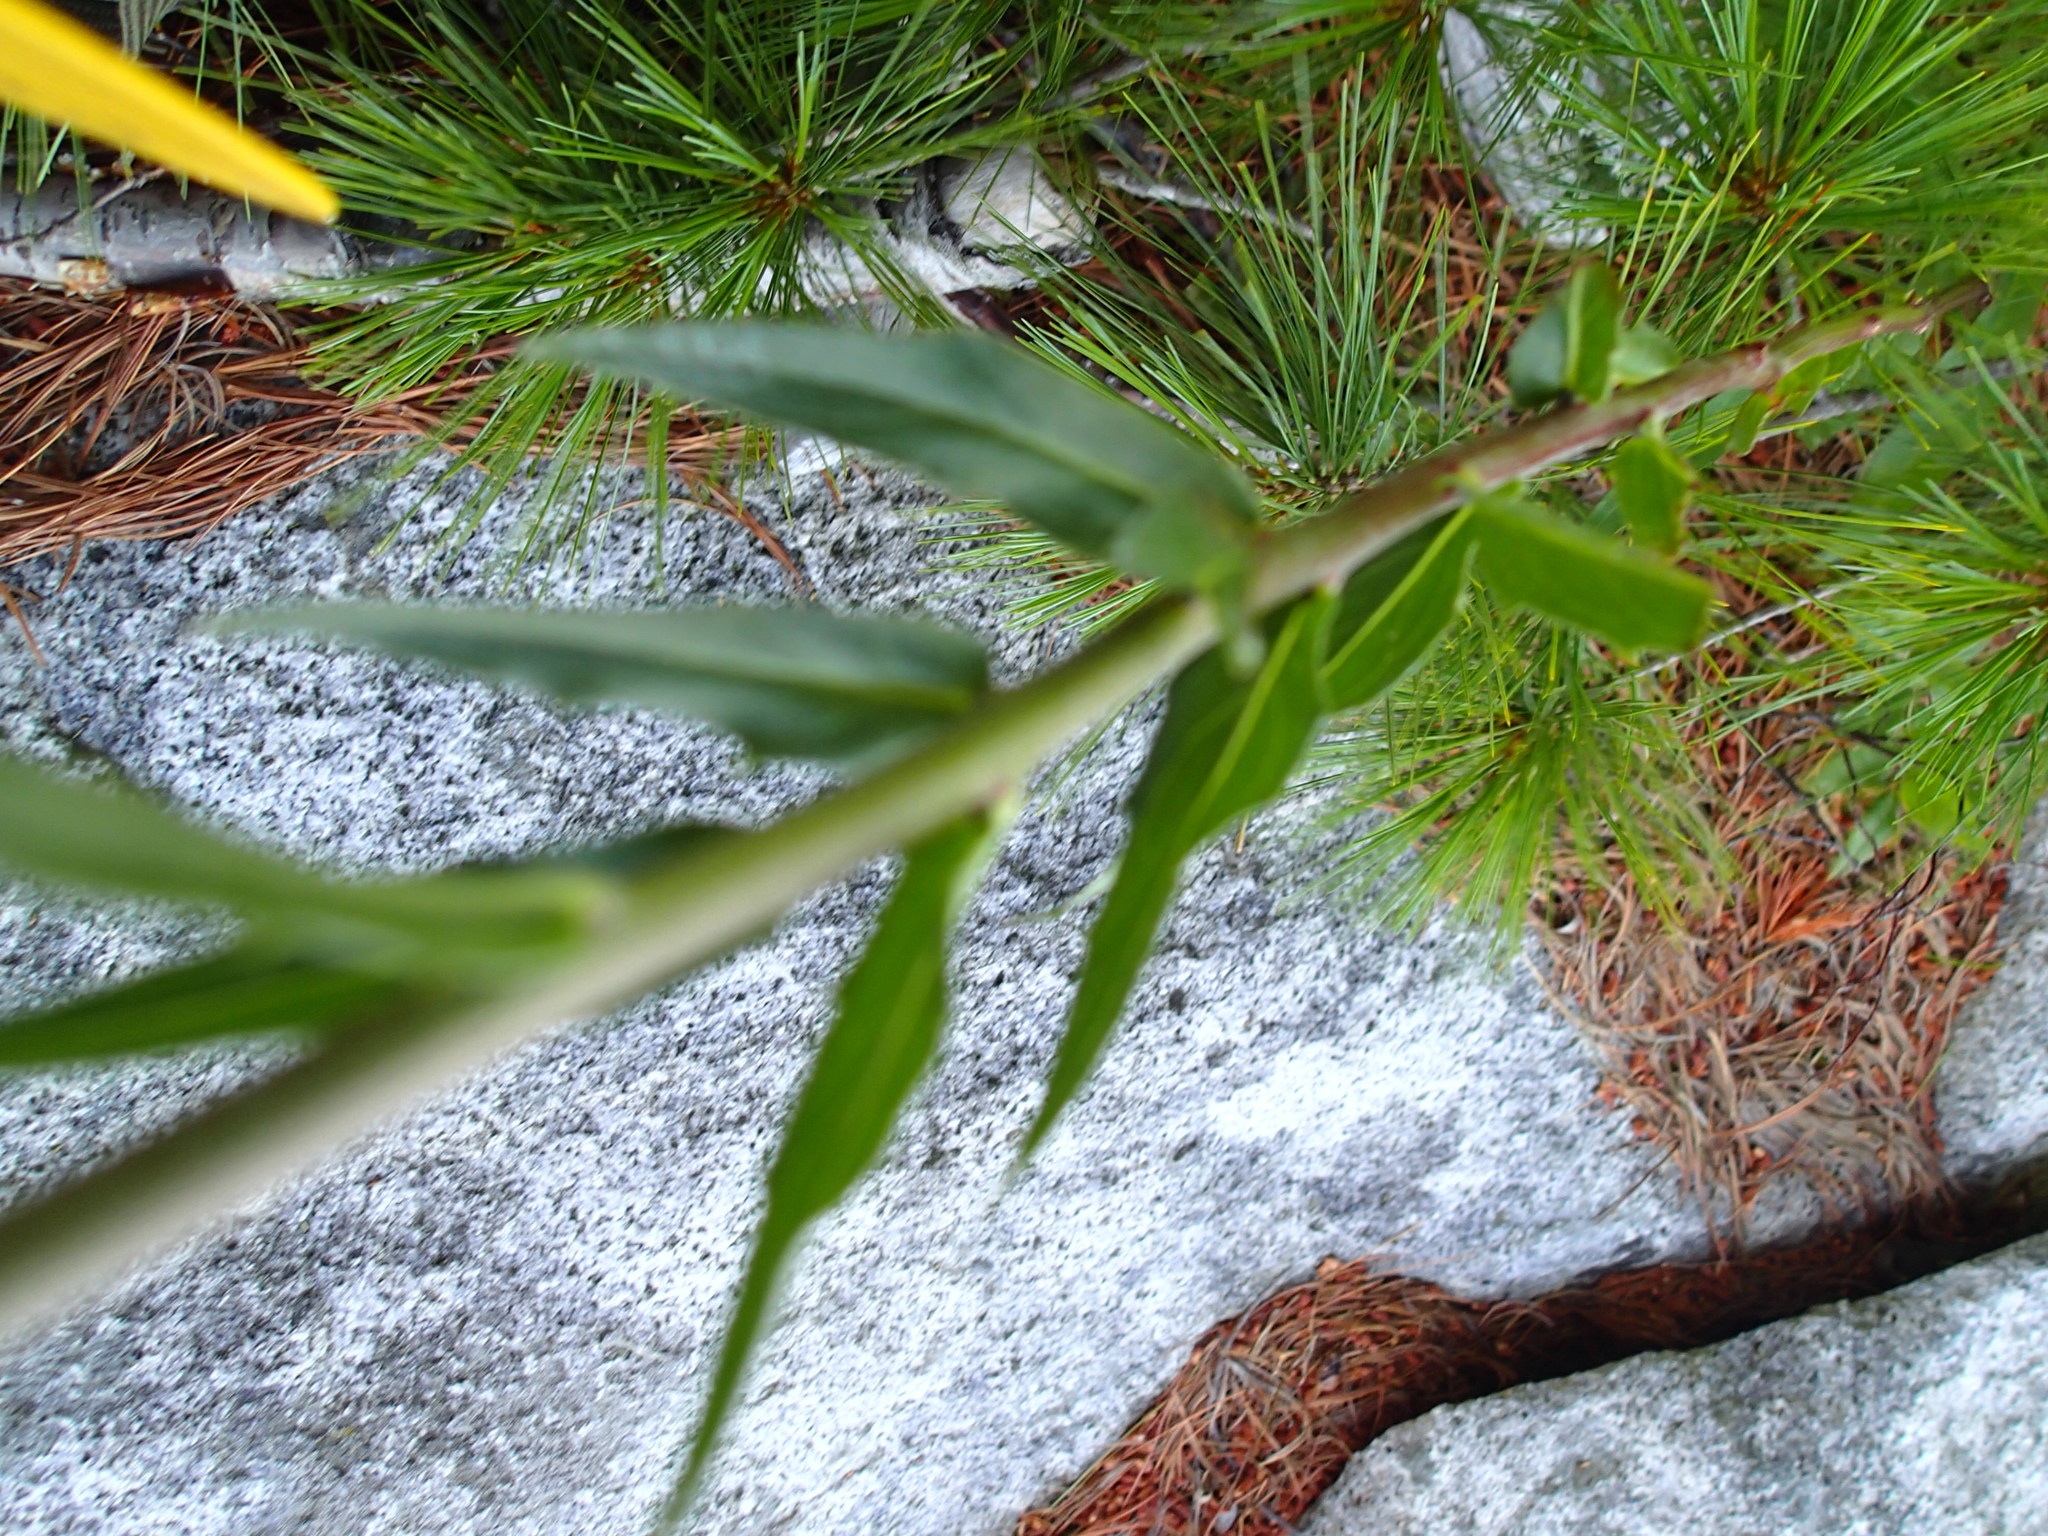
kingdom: Plantae
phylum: Tracheophyta
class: Magnoliopsida
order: Asterales
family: Asteraceae
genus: Hieracium
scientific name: Hieracium umbellatum
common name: Northern hawkweed
